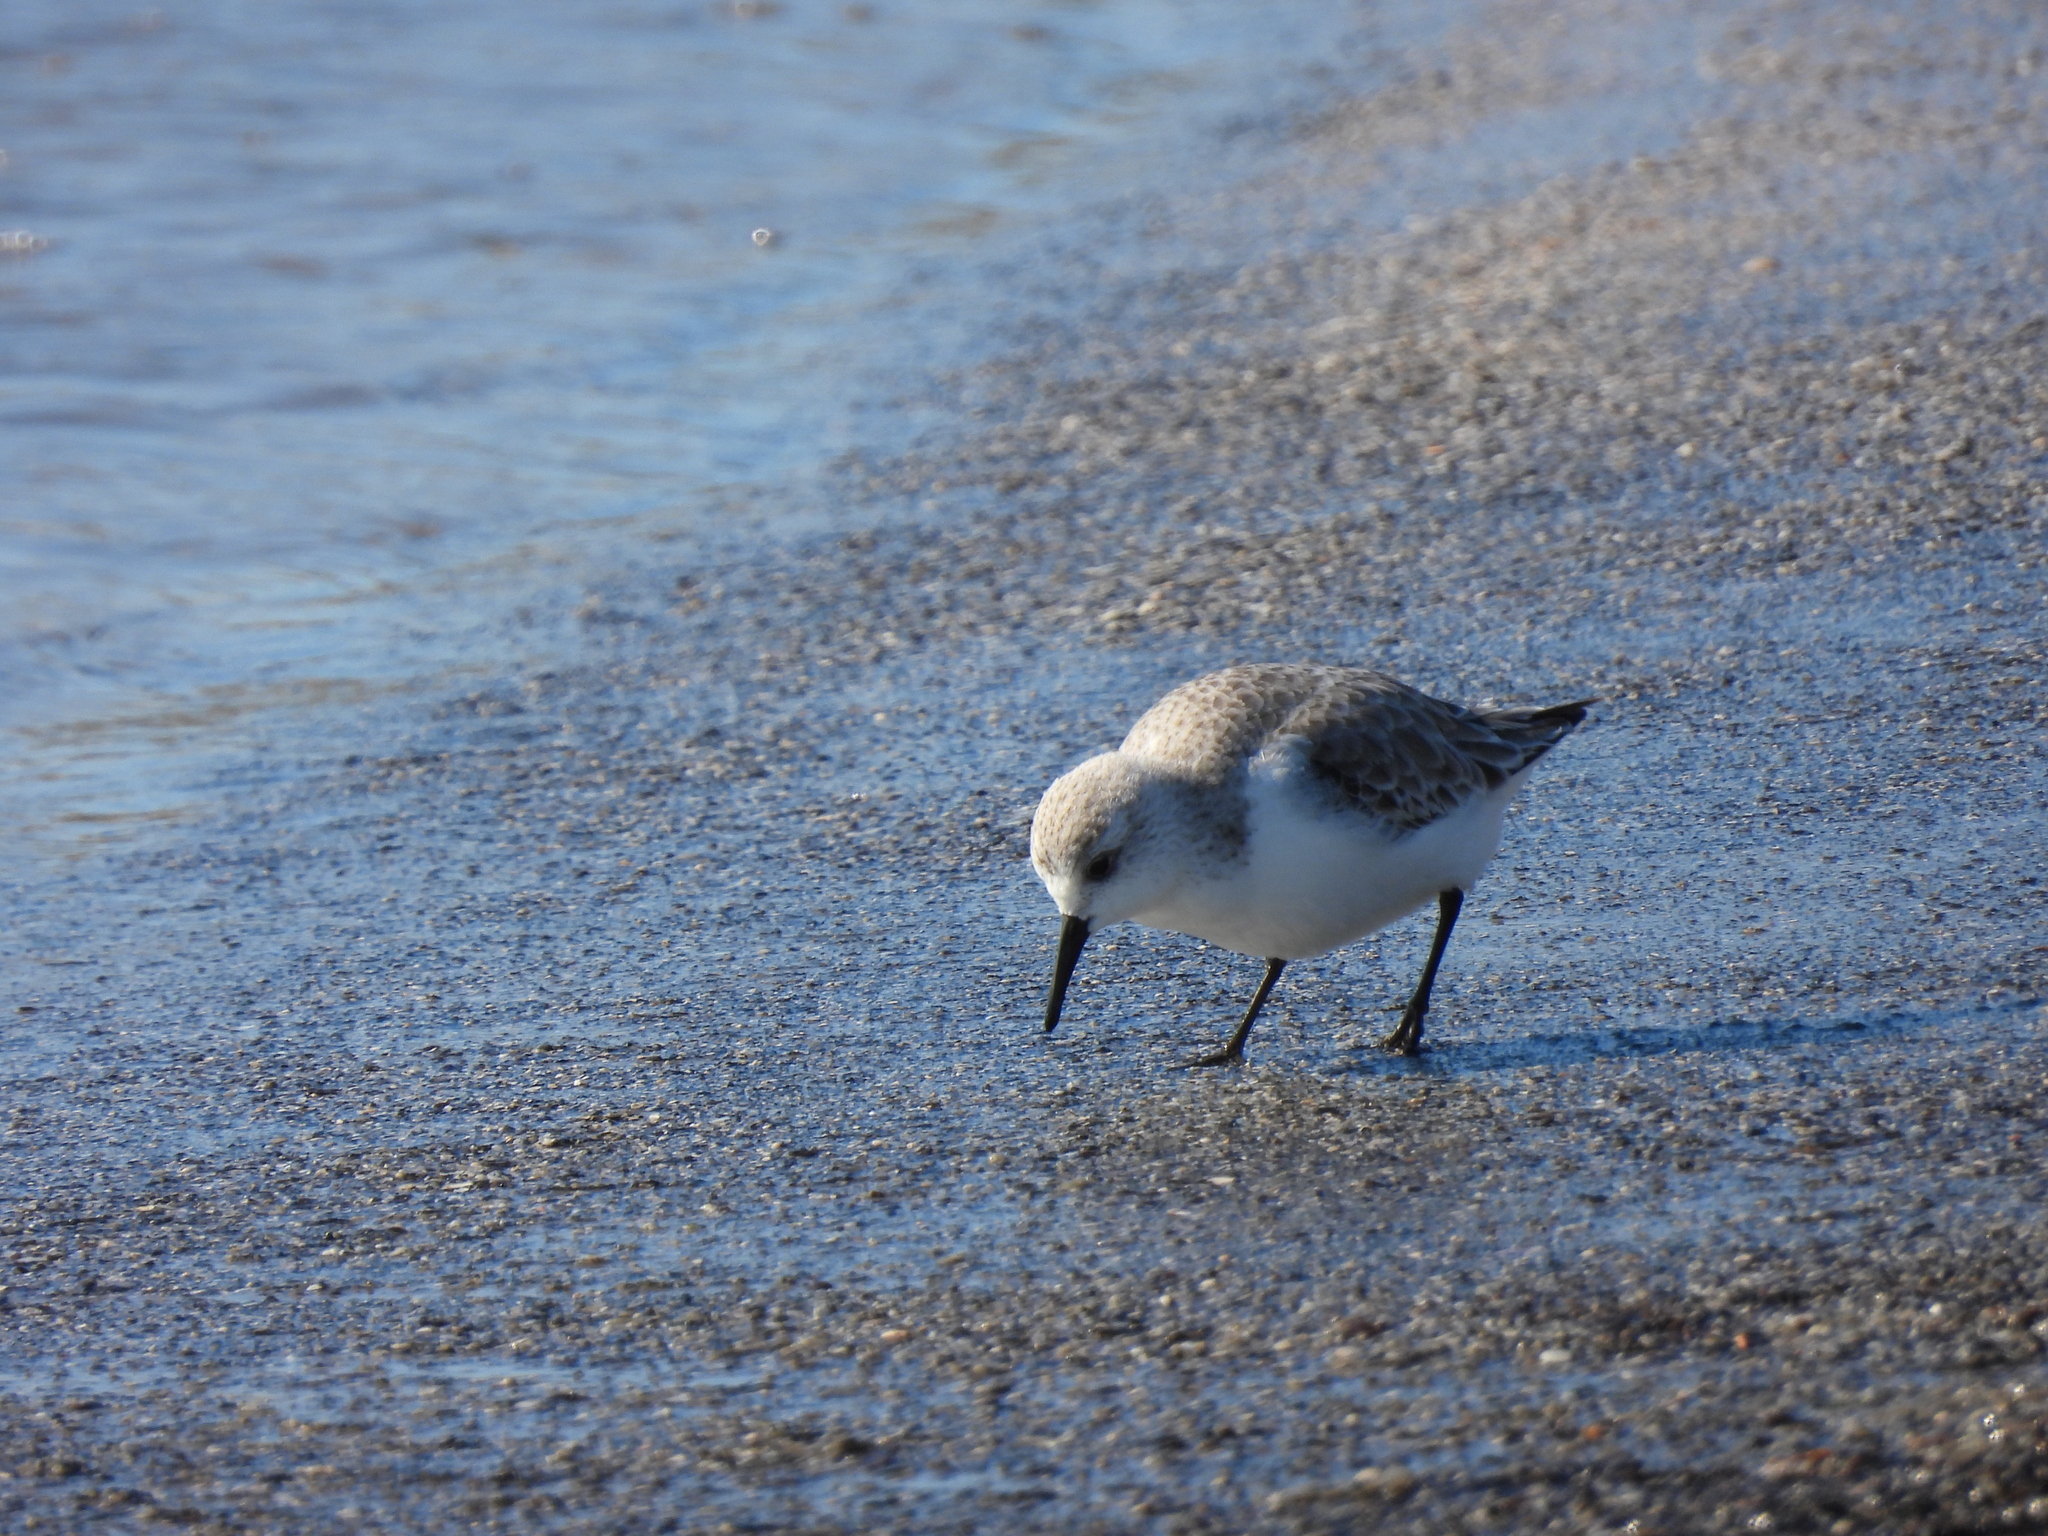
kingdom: Animalia
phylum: Chordata
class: Aves
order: Charadriiformes
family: Scolopacidae
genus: Calidris
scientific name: Calidris alba
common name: Sanderling
